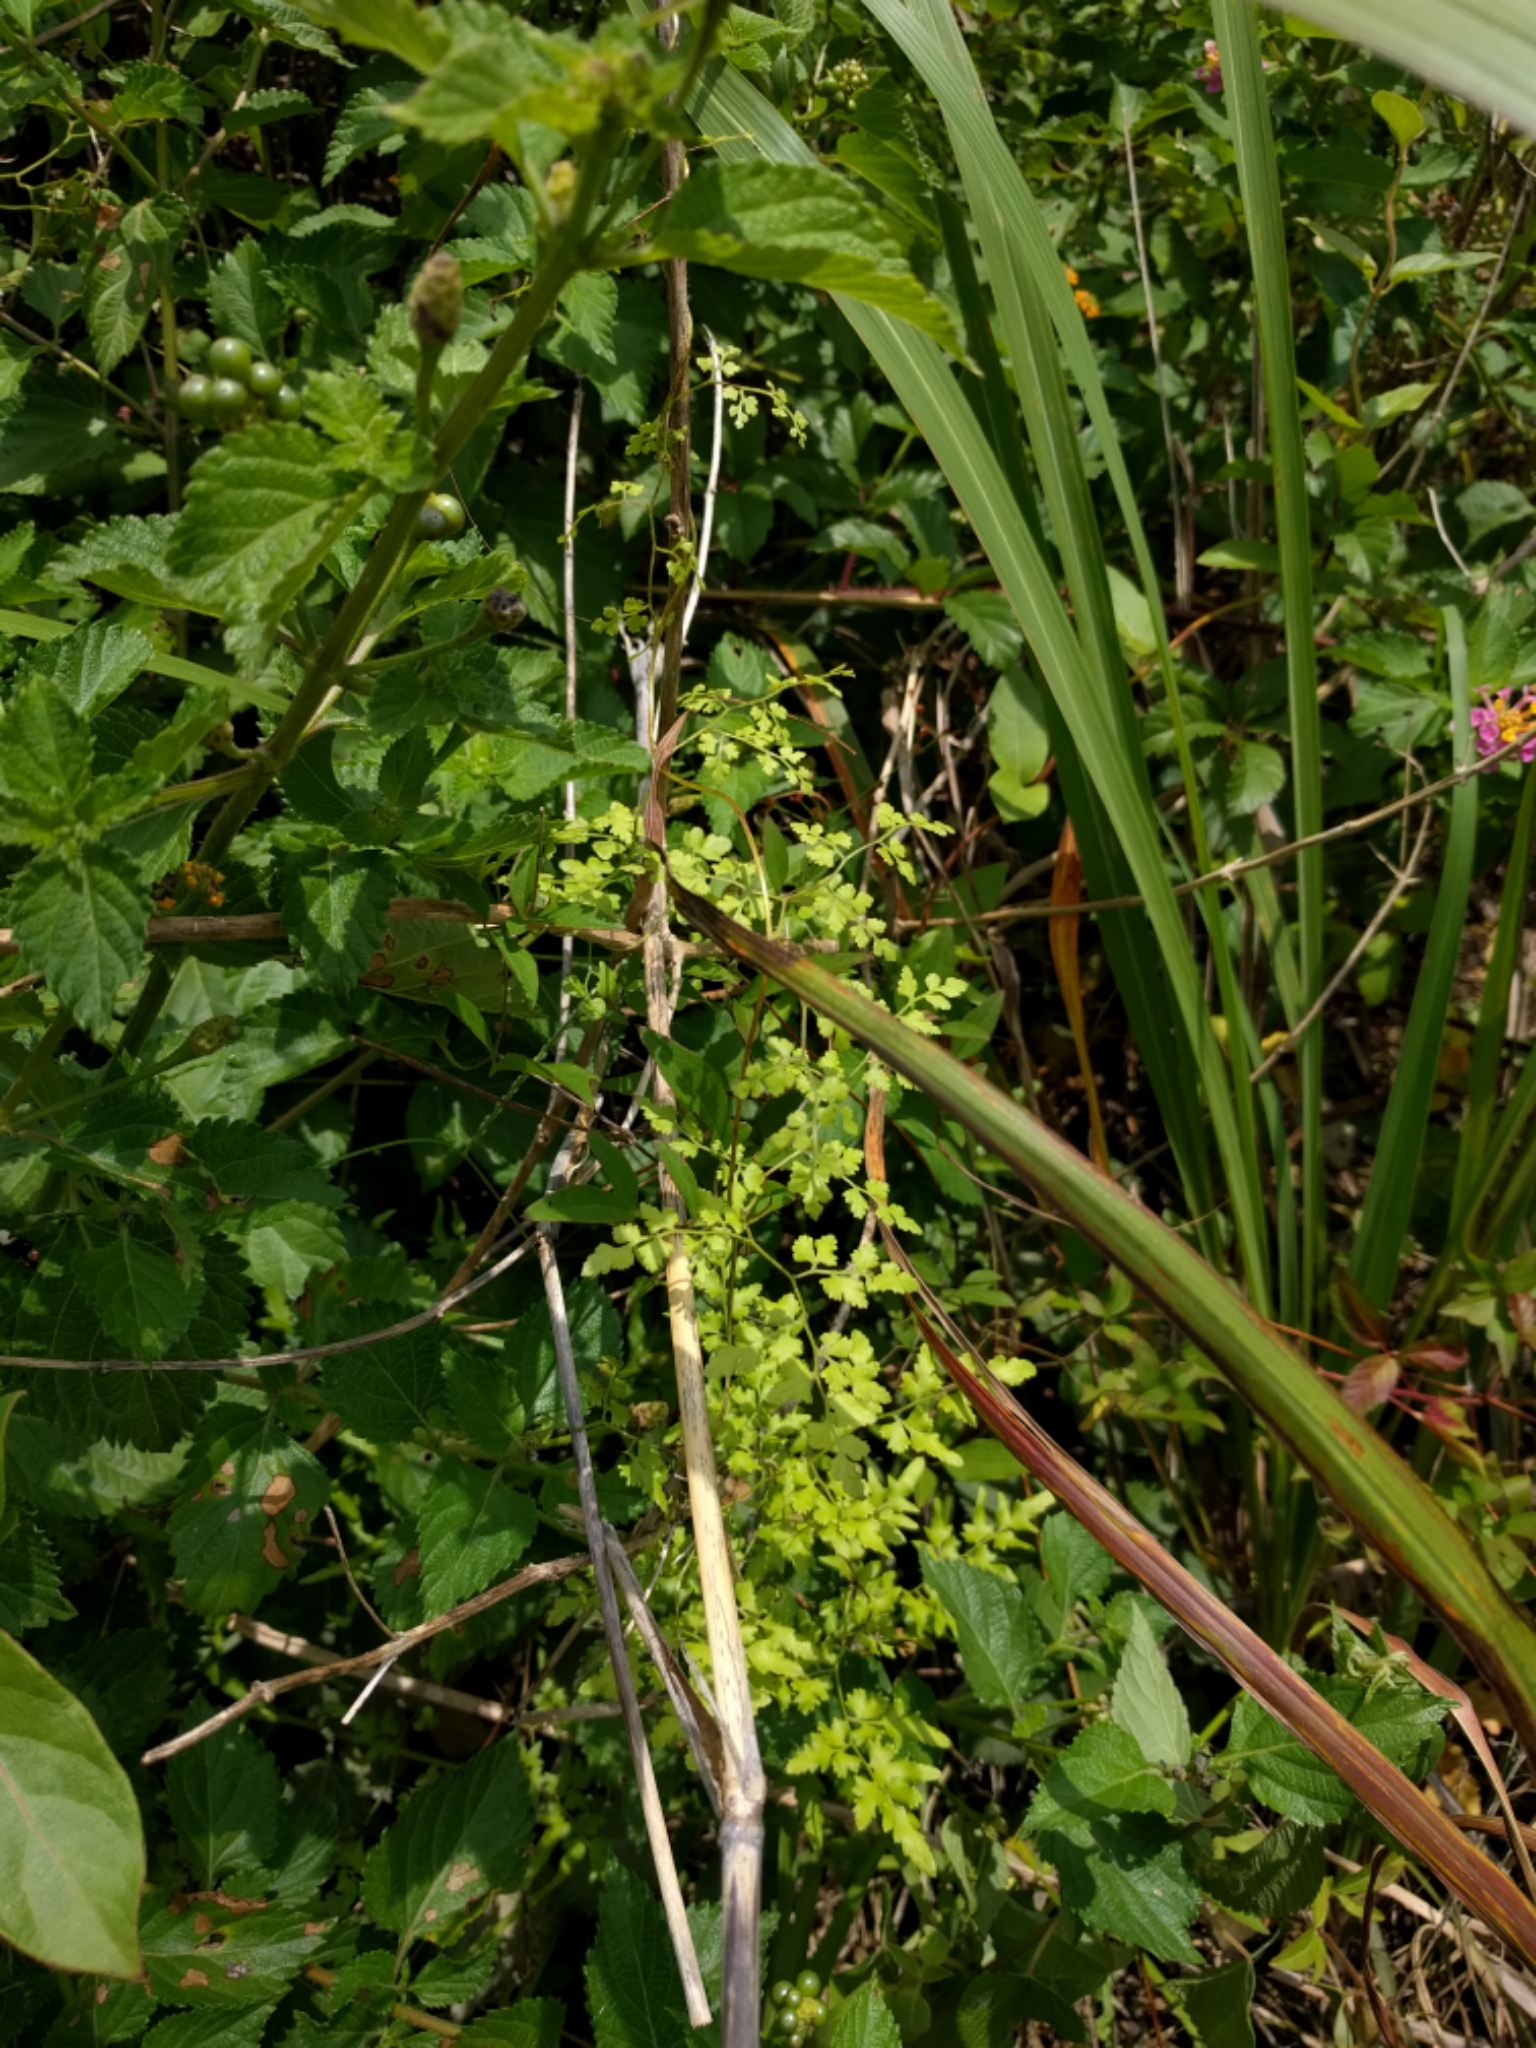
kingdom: Plantae
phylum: Tracheophyta
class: Polypodiopsida
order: Schizaeales
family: Lygodiaceae
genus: Lygodium
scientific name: Lygodium japonicum
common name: Japanese climbing fern
